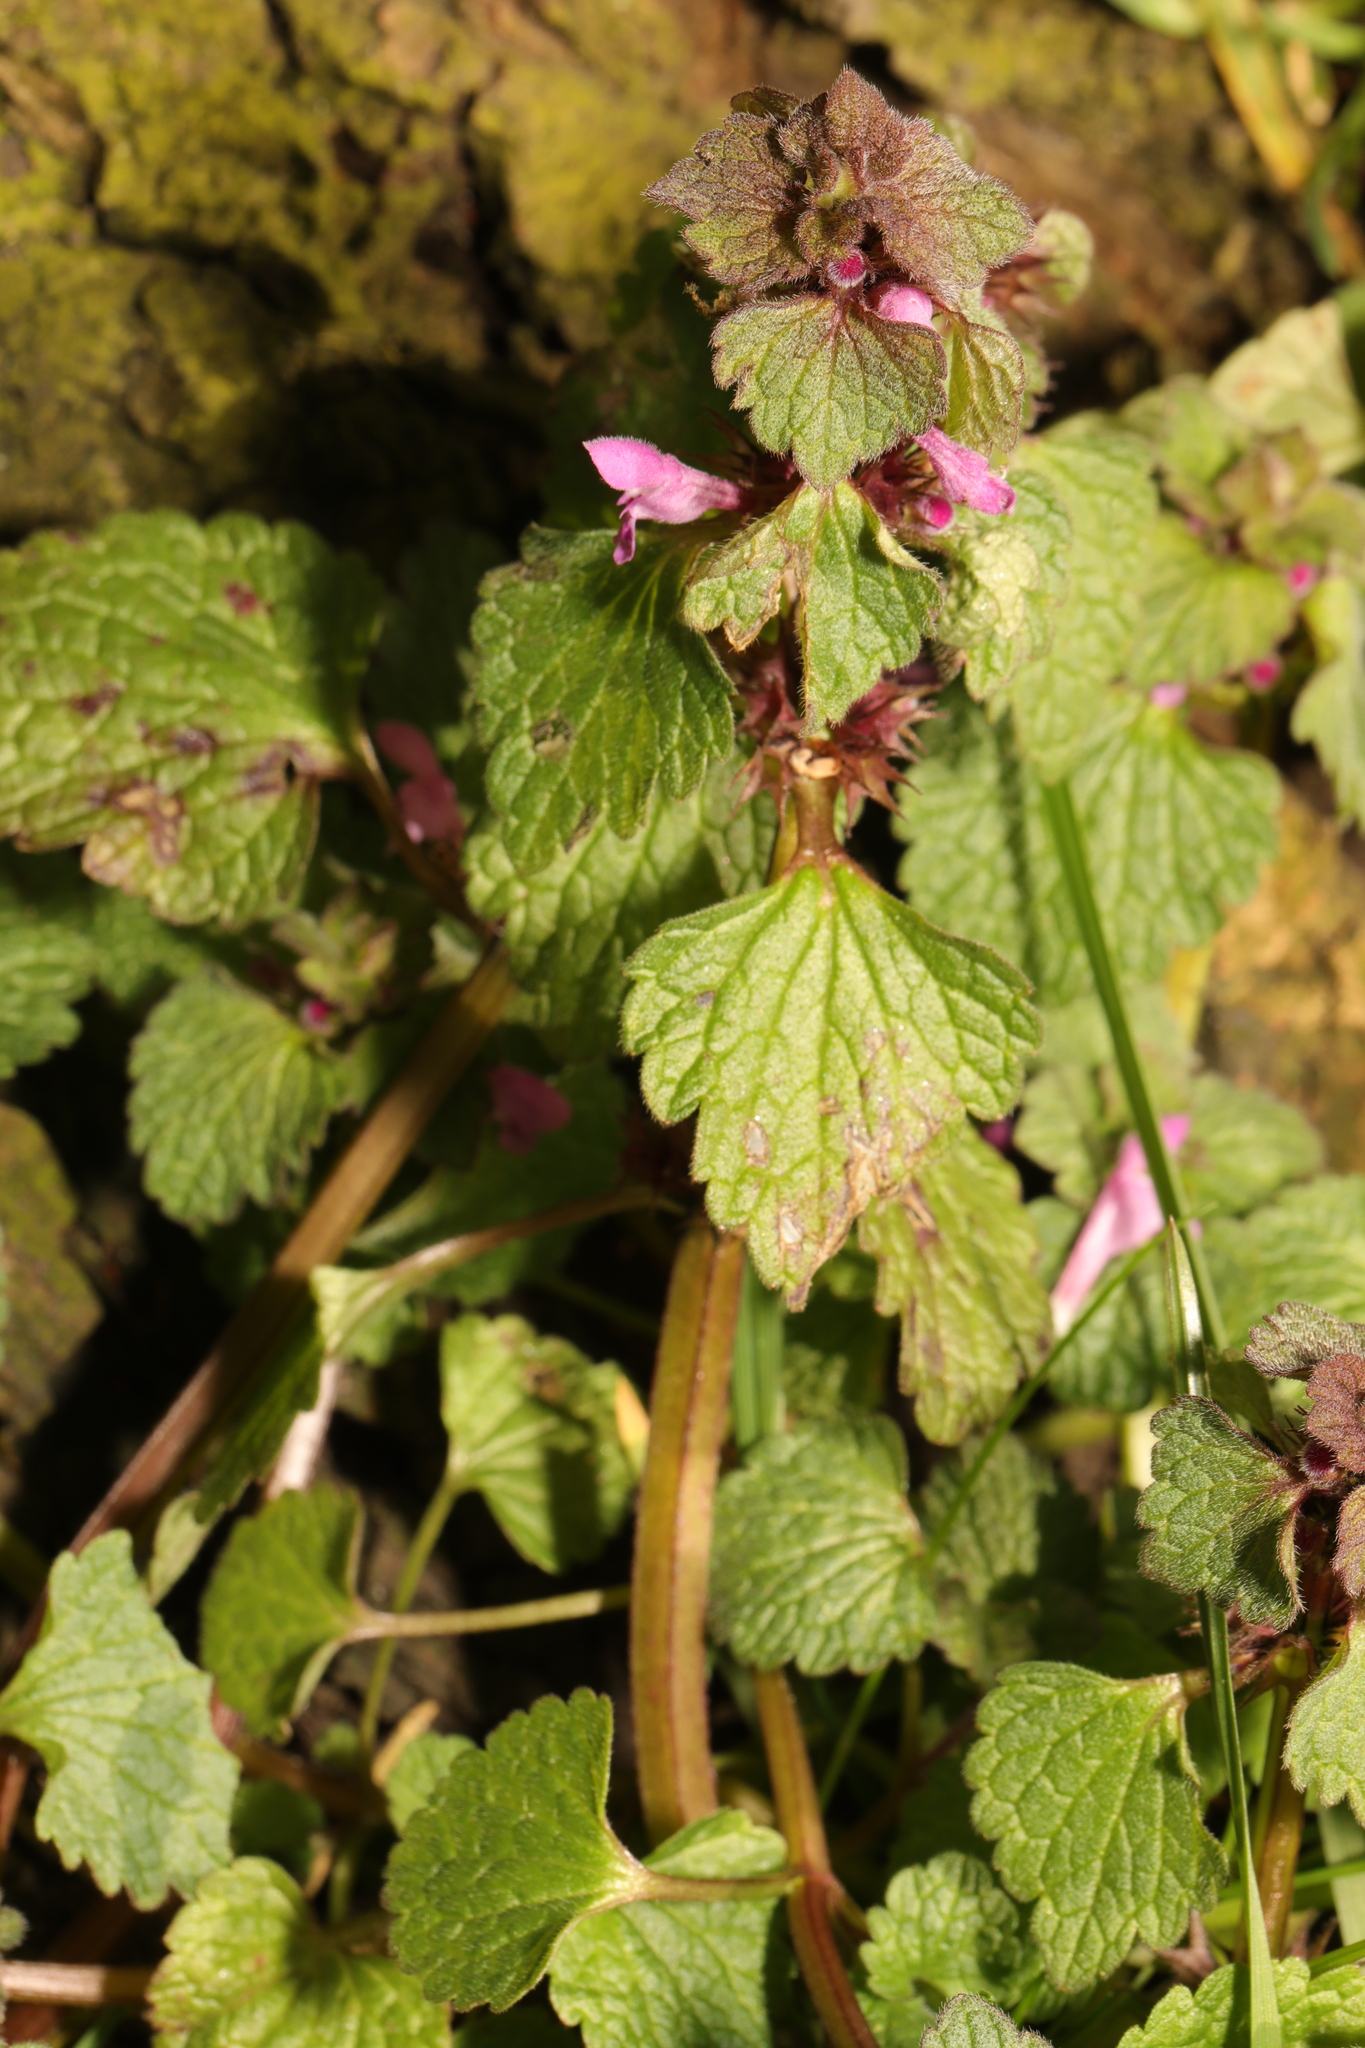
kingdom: Plantae
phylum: Tracheophyta
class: Magnoliopsida
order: Lamiales
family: Lamiaceae
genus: Lamium
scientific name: Lamium purpureum
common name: Red dead-nettle
